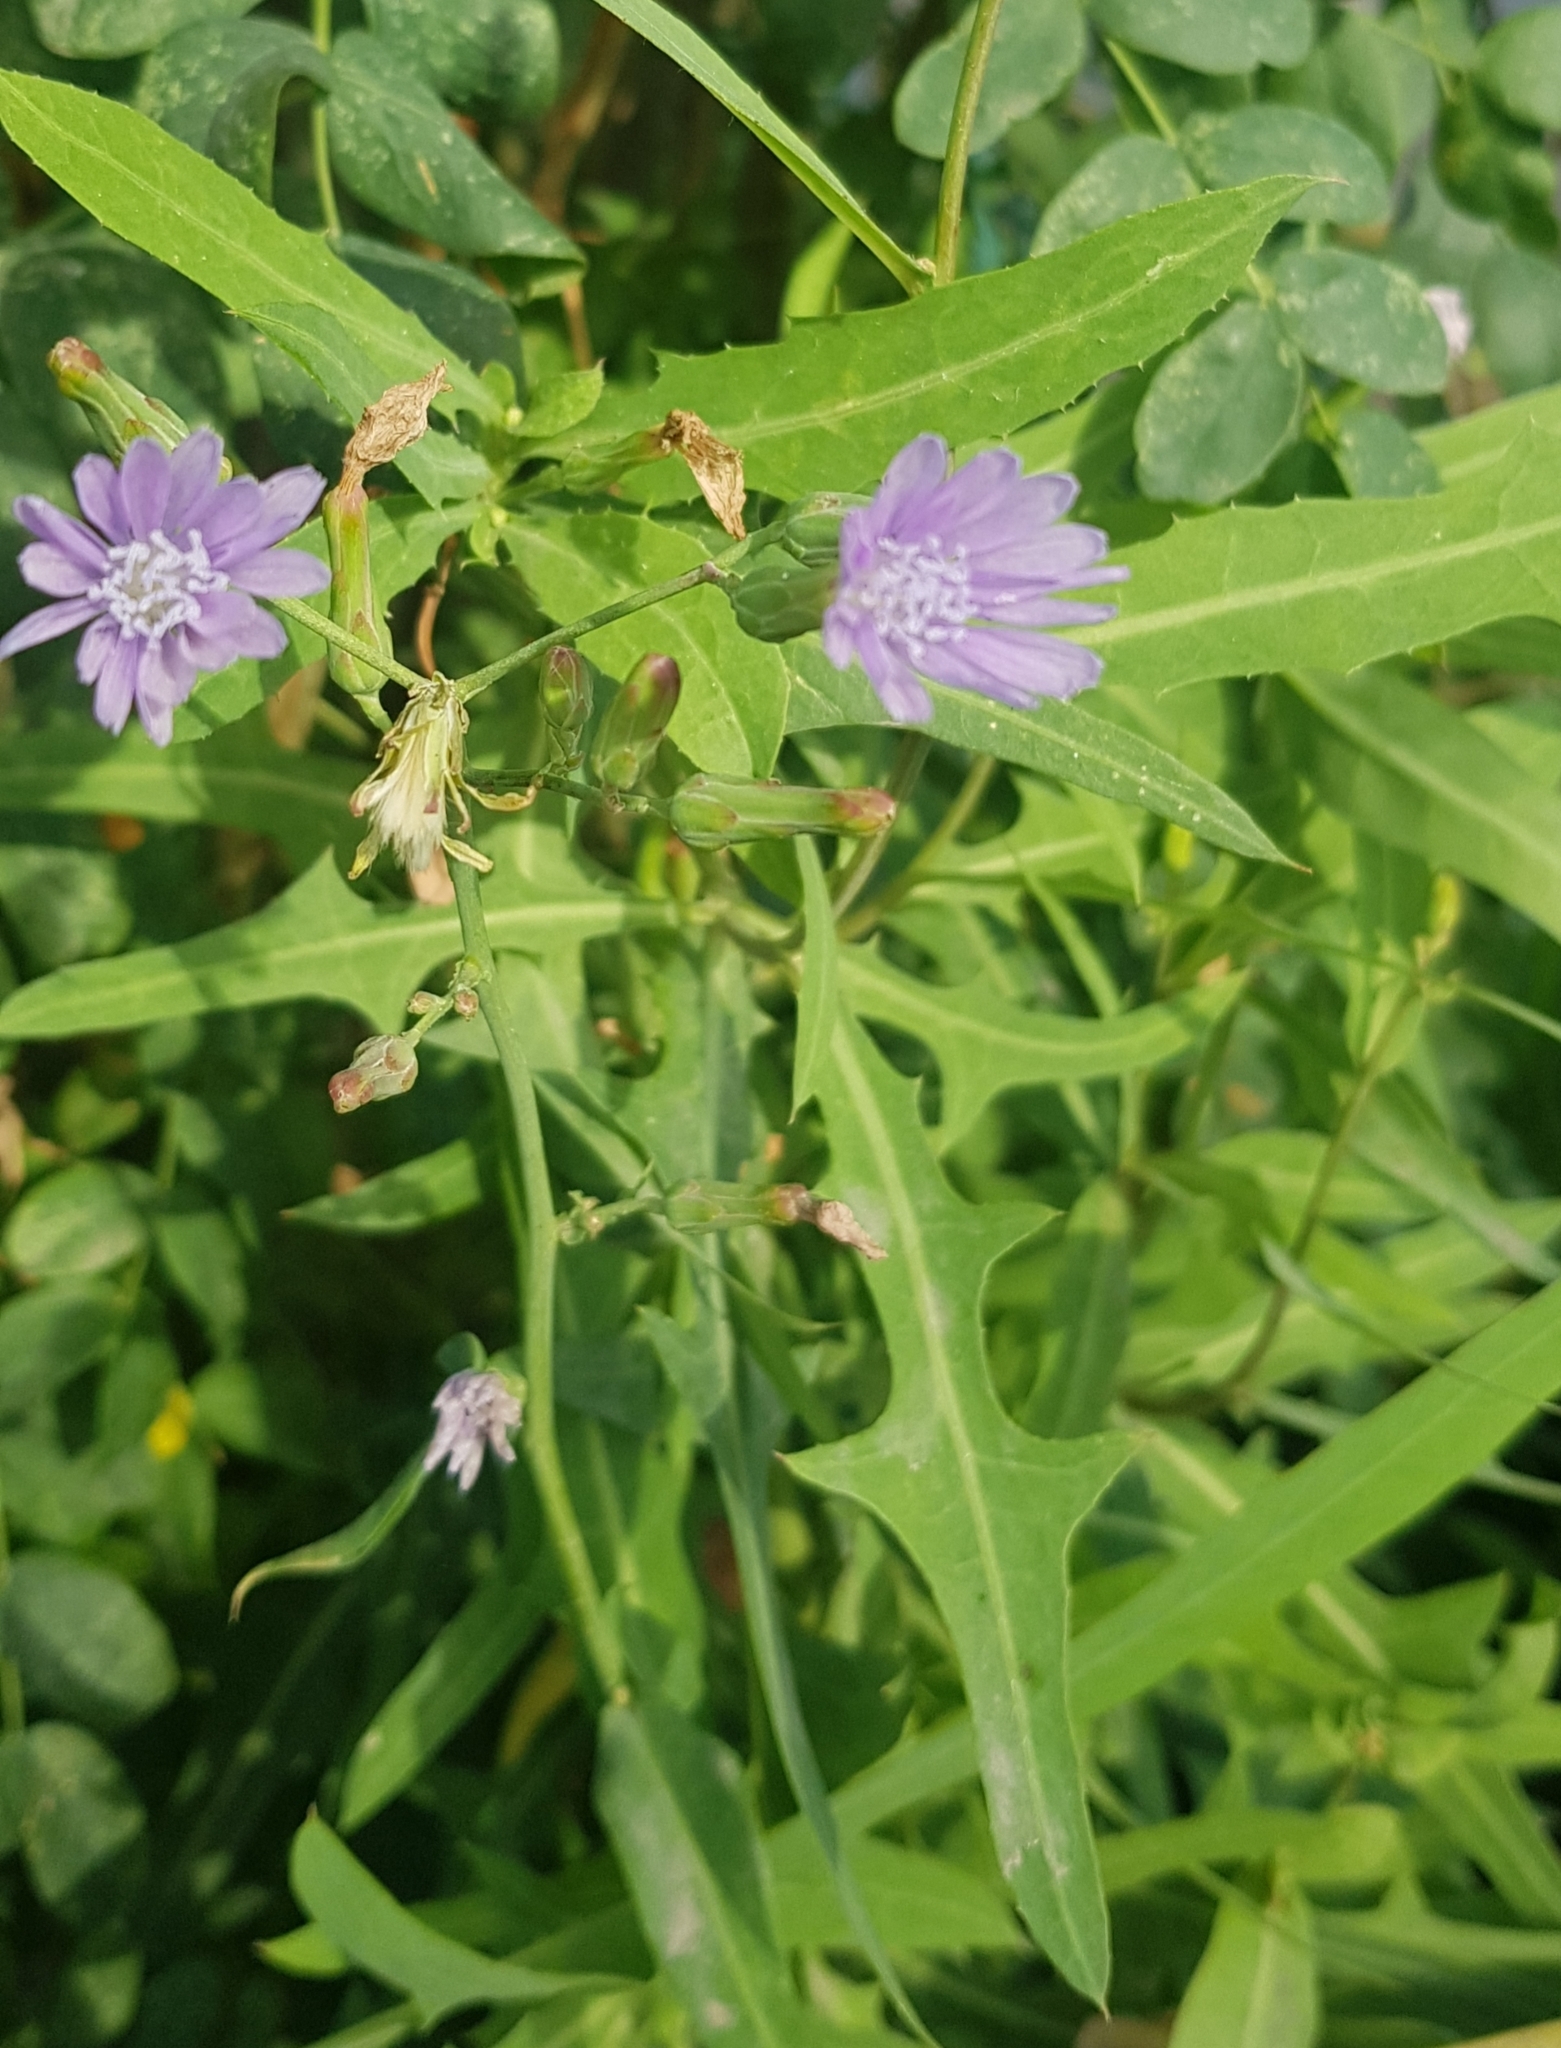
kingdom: Plantae
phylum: Tracheophyta
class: Magnoliopsida
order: Asterales
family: Asteraceae
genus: Lactuca
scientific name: Lactuca sibirica
